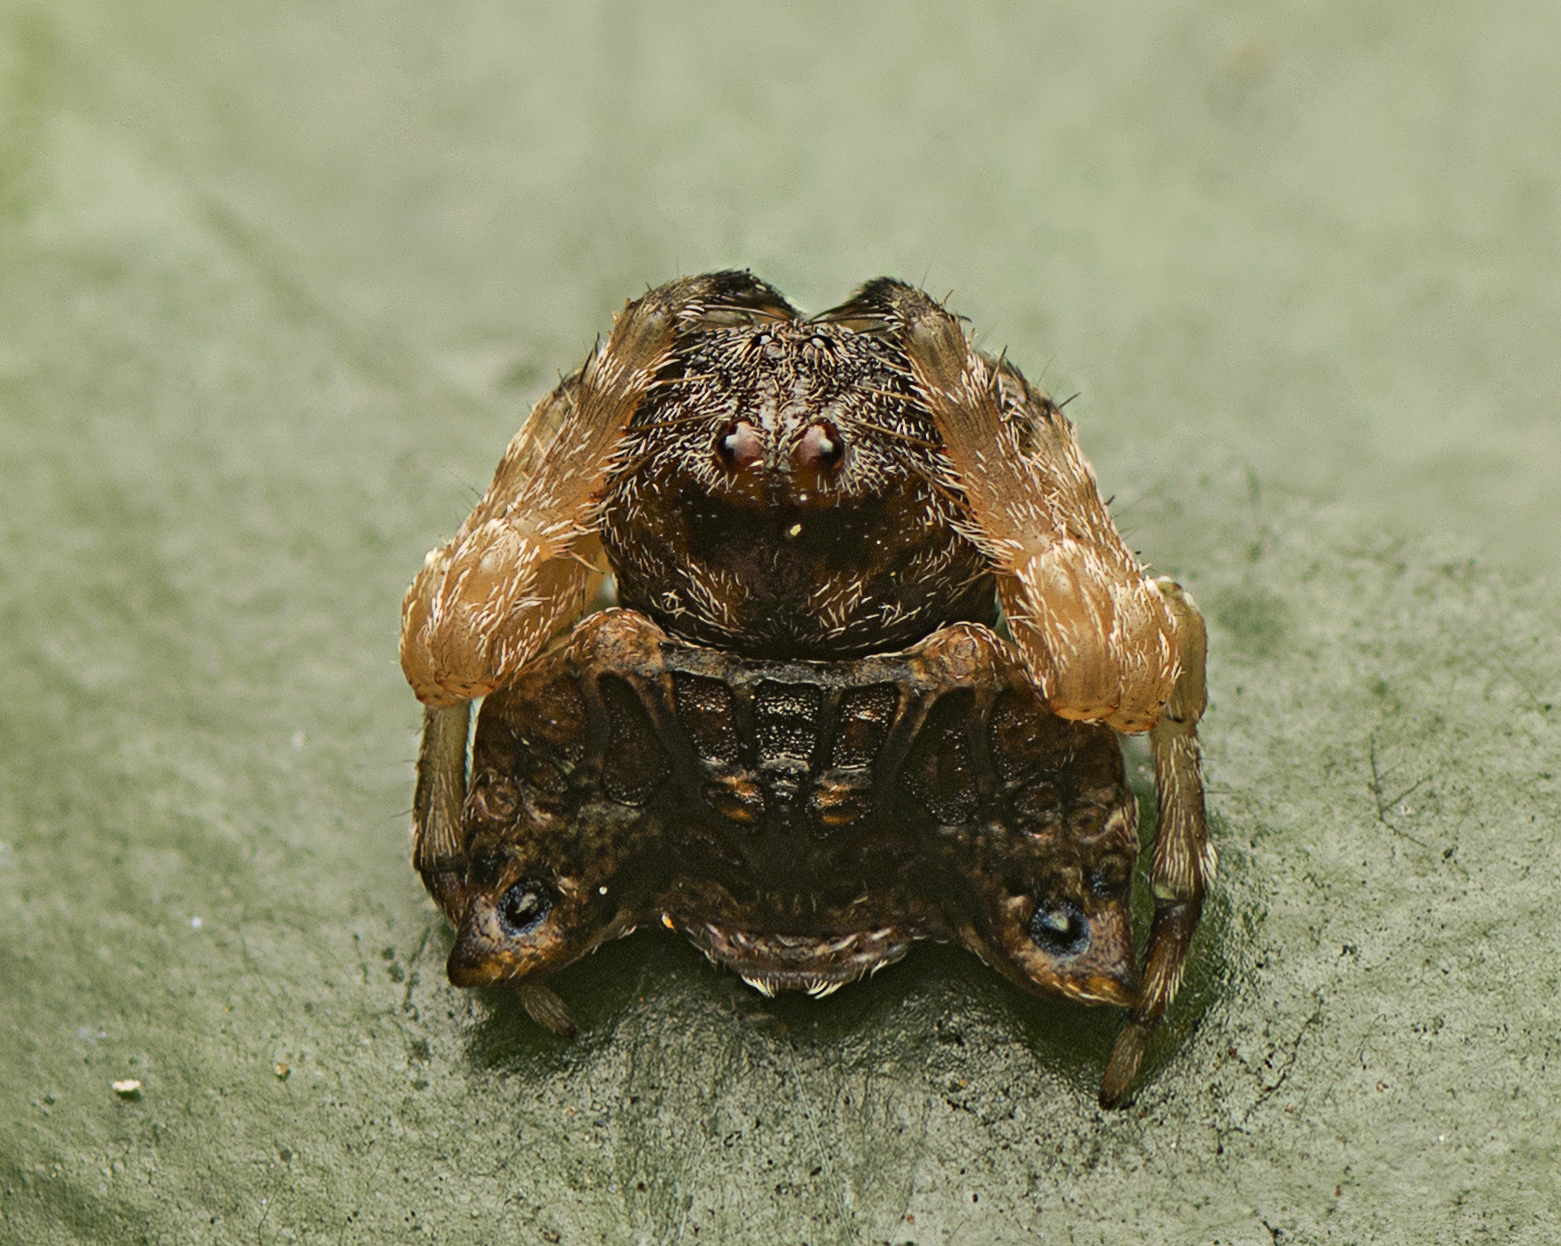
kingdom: Animalia
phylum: Arthropoda
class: Arachnida
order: Araneae
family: Arkyidae
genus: Arkys
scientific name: Arkys curtulus
